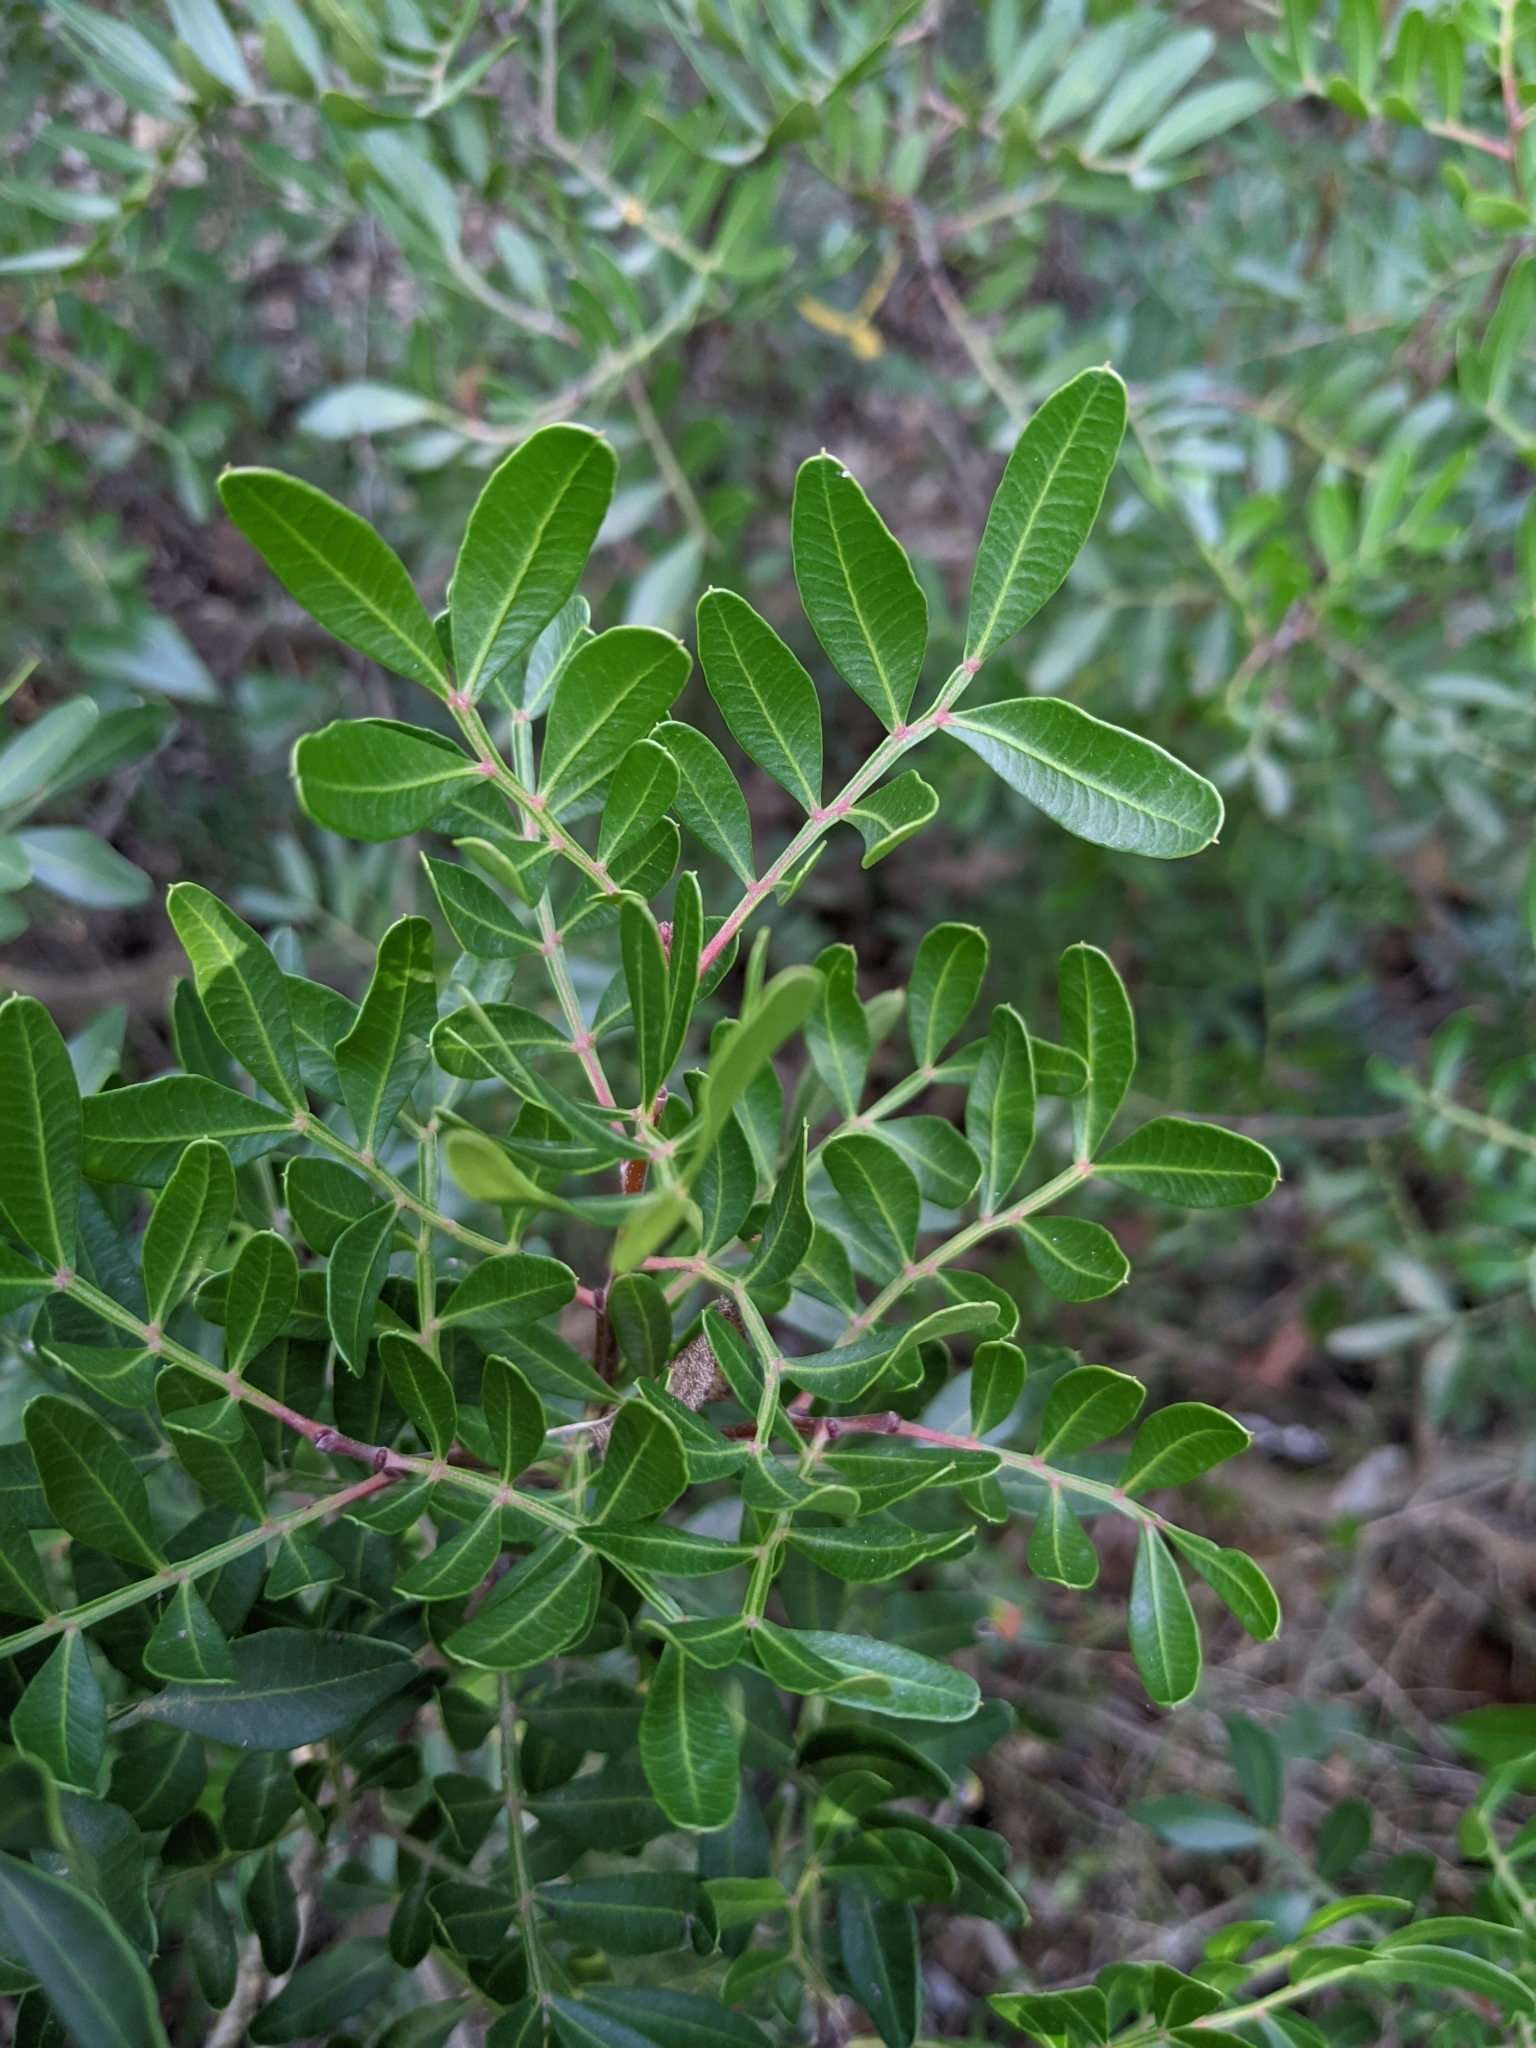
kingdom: Plantae
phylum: Tracheophyta
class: Magnoliopsida
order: Sapindales
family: Anacardiaceae
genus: Pistacia
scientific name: Pistacia lentiscus
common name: Lentisk
